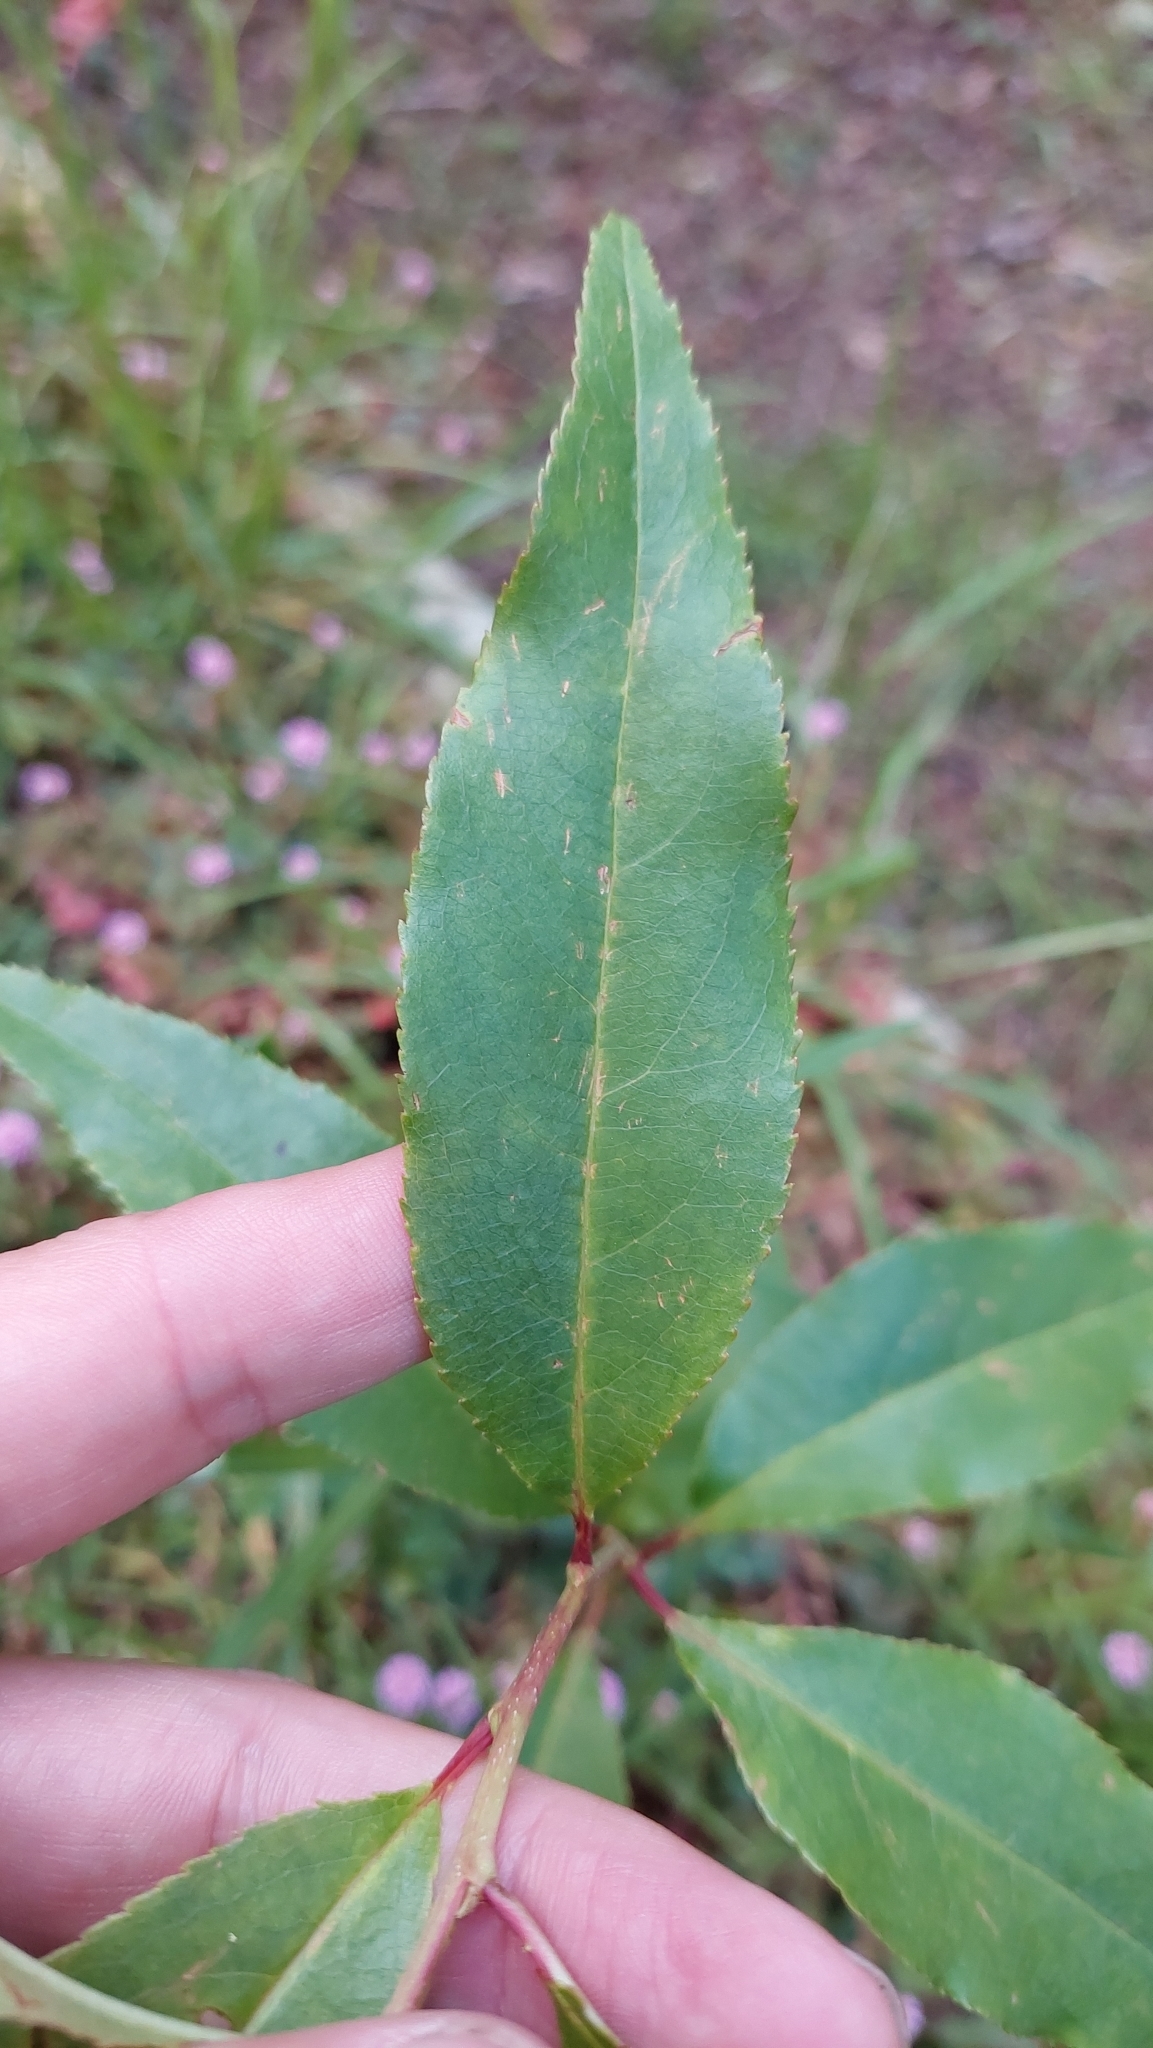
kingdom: Plantae
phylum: Tracheophyta
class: Magnoliopsida
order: Rosales
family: Rosaceae
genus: Prunus
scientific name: Prunus serotina
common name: Black cherry
